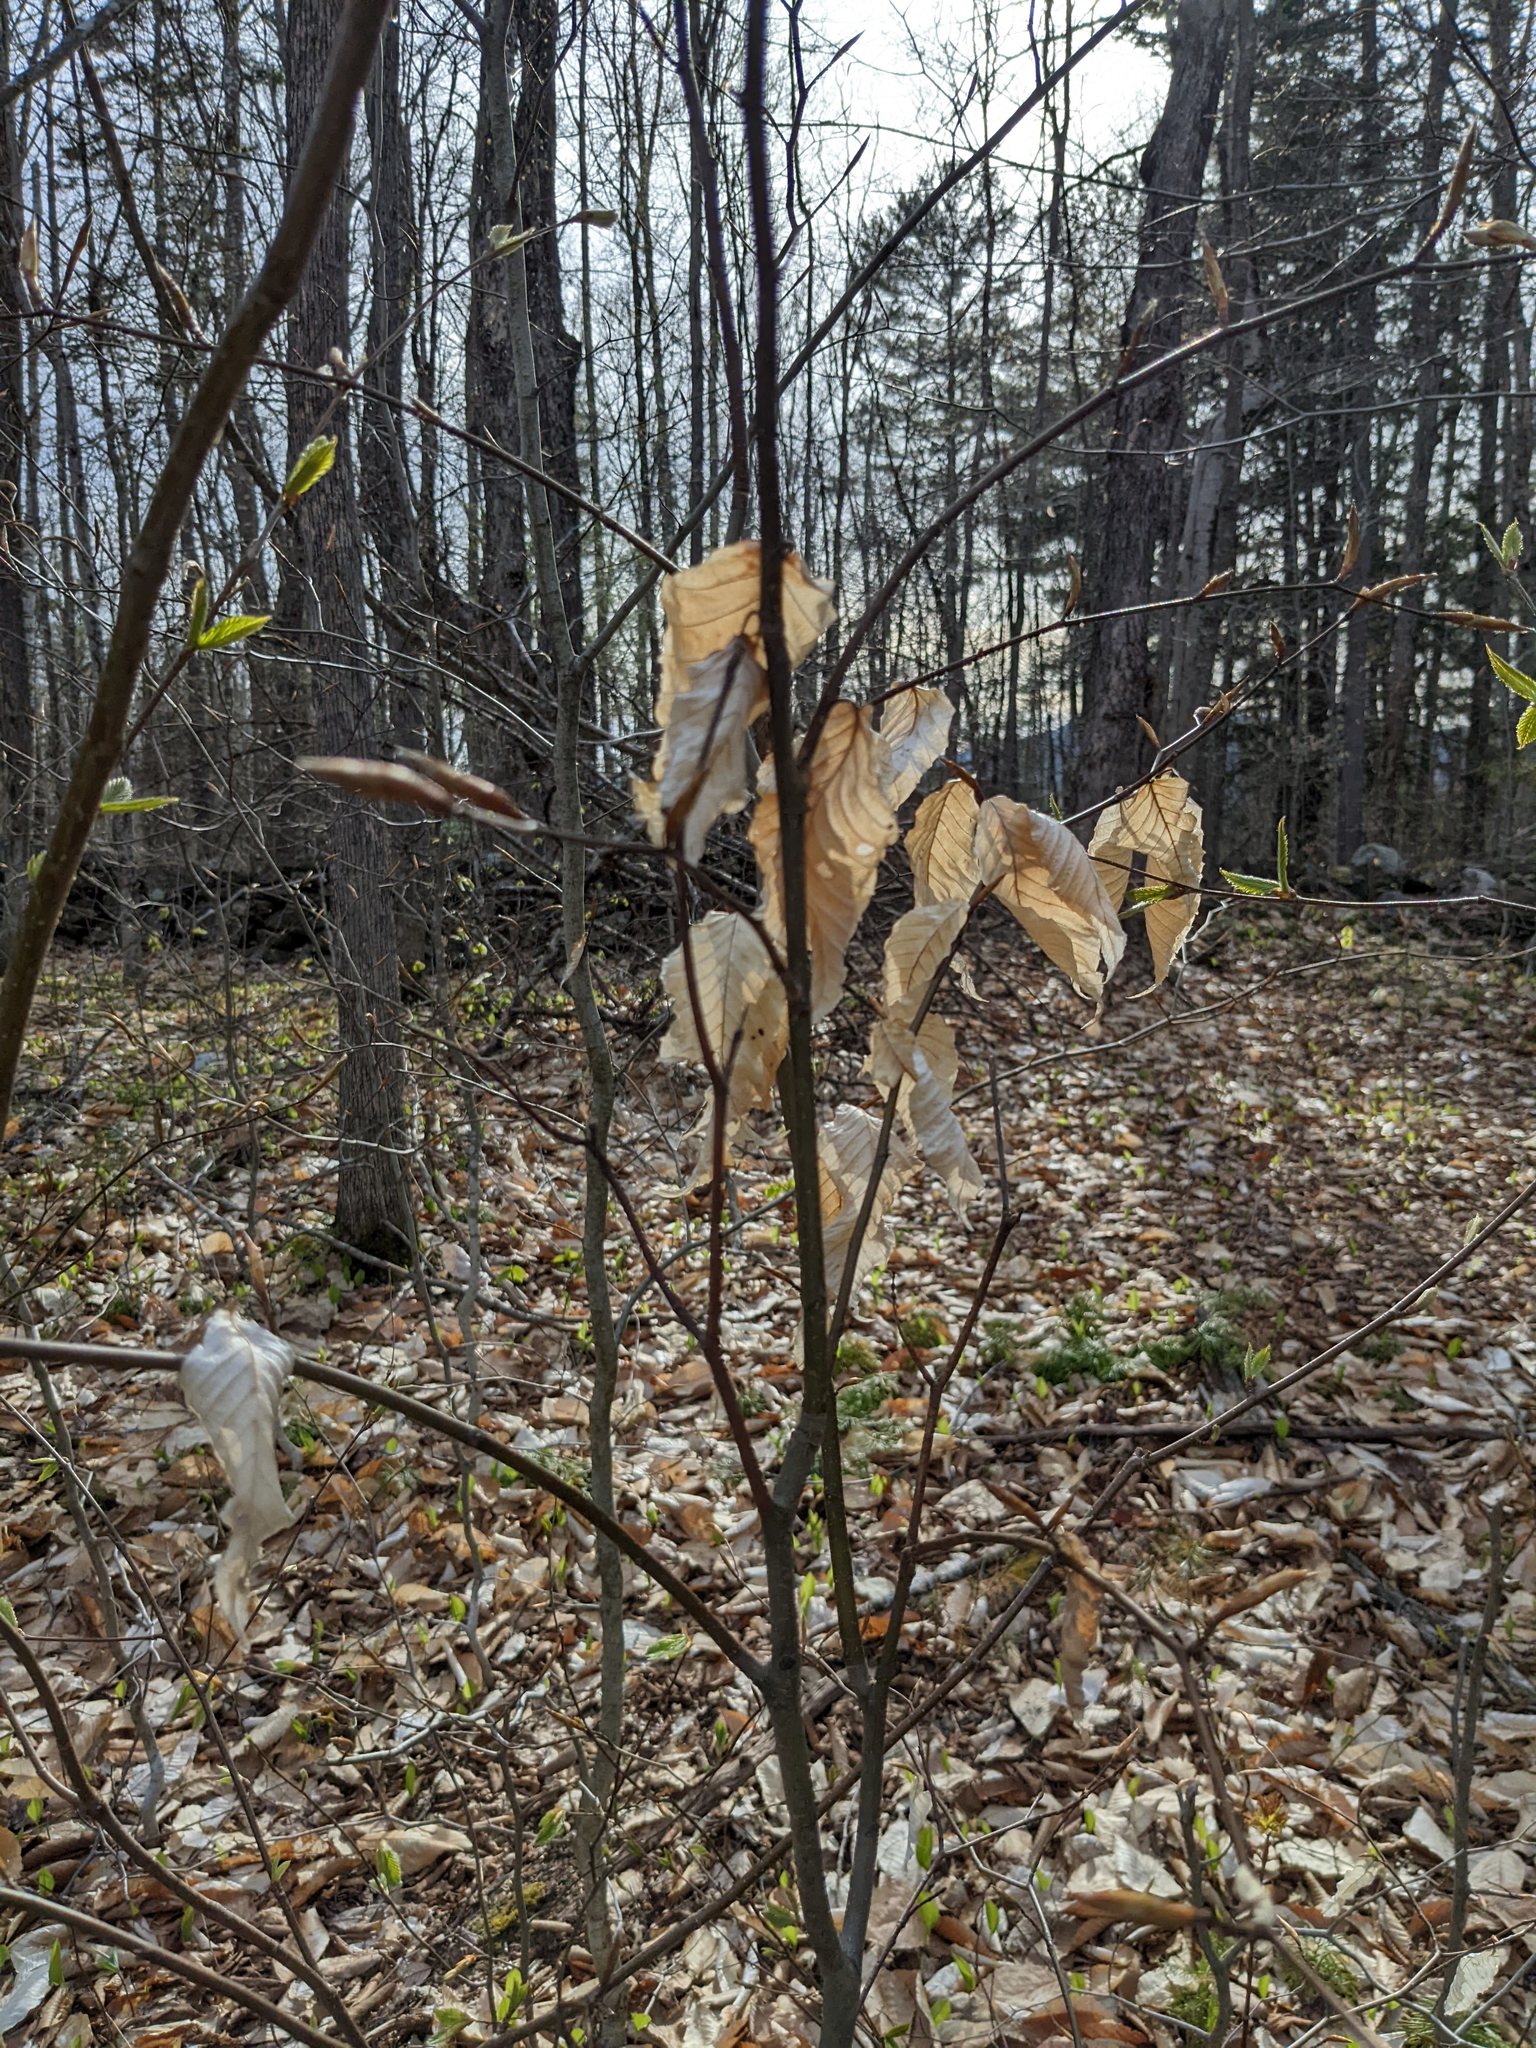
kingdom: Plantae
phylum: Tracheophyta
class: Magnoliopsida
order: Fagales
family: Fagaceae
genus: Fagus
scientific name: Fagus grandifolia
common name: American beech
